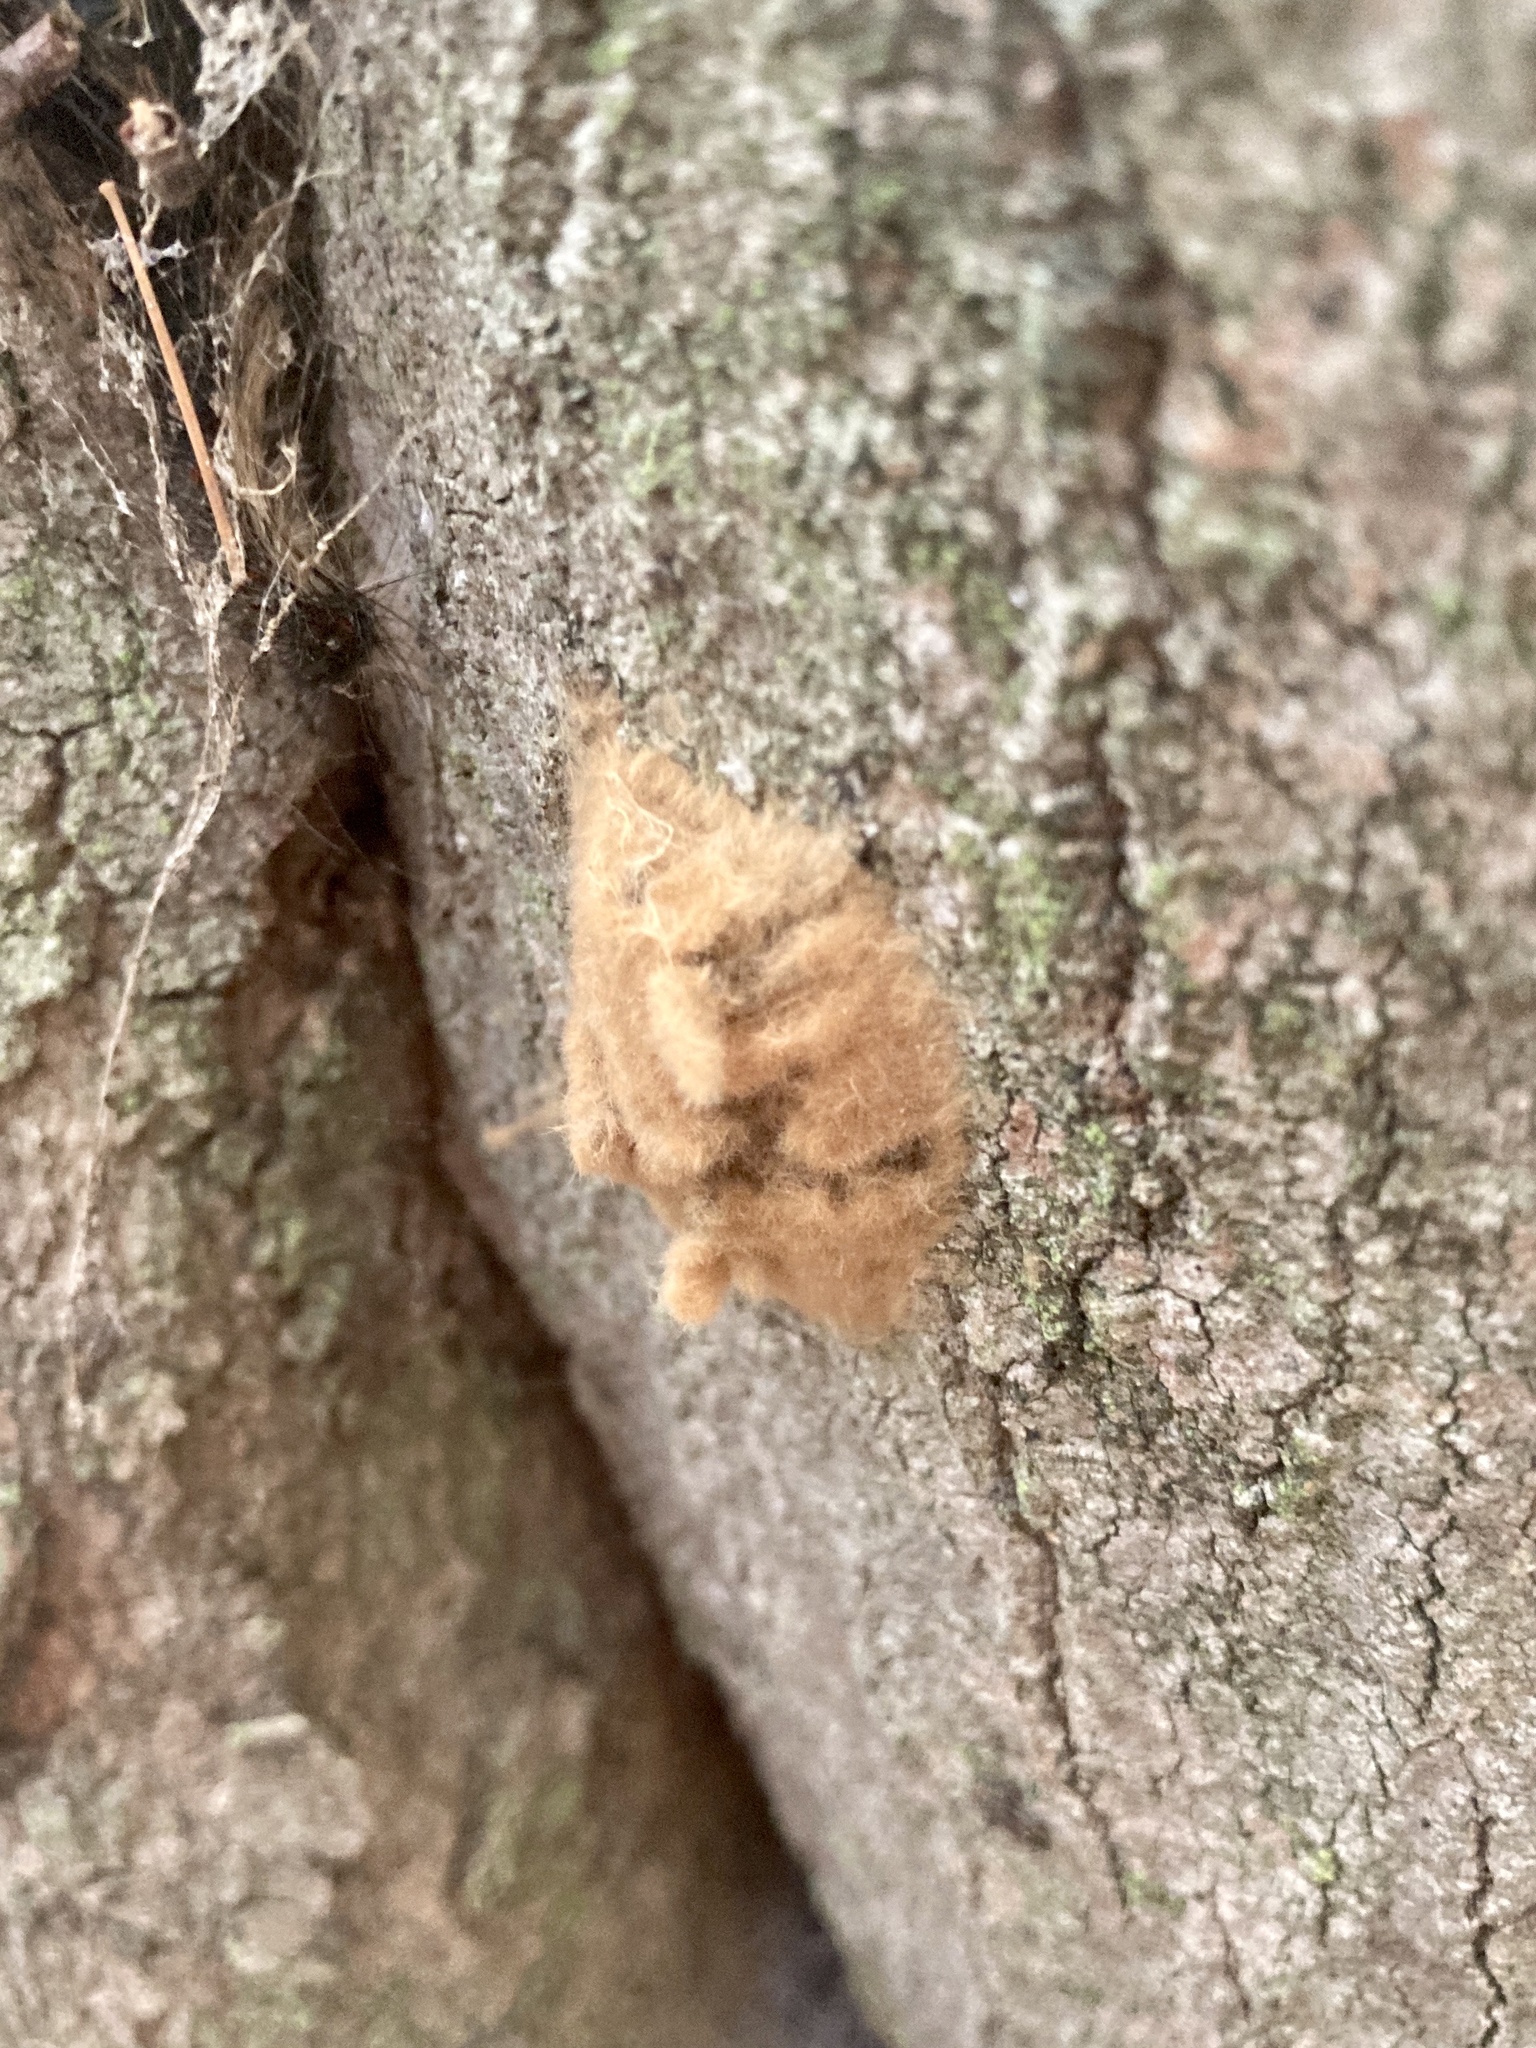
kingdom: Animalia
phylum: Arthropoda
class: Insecta
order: Lepidoptera
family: Erebidae
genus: Lymantria
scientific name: Lymantria dispar
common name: Gypsy moth
